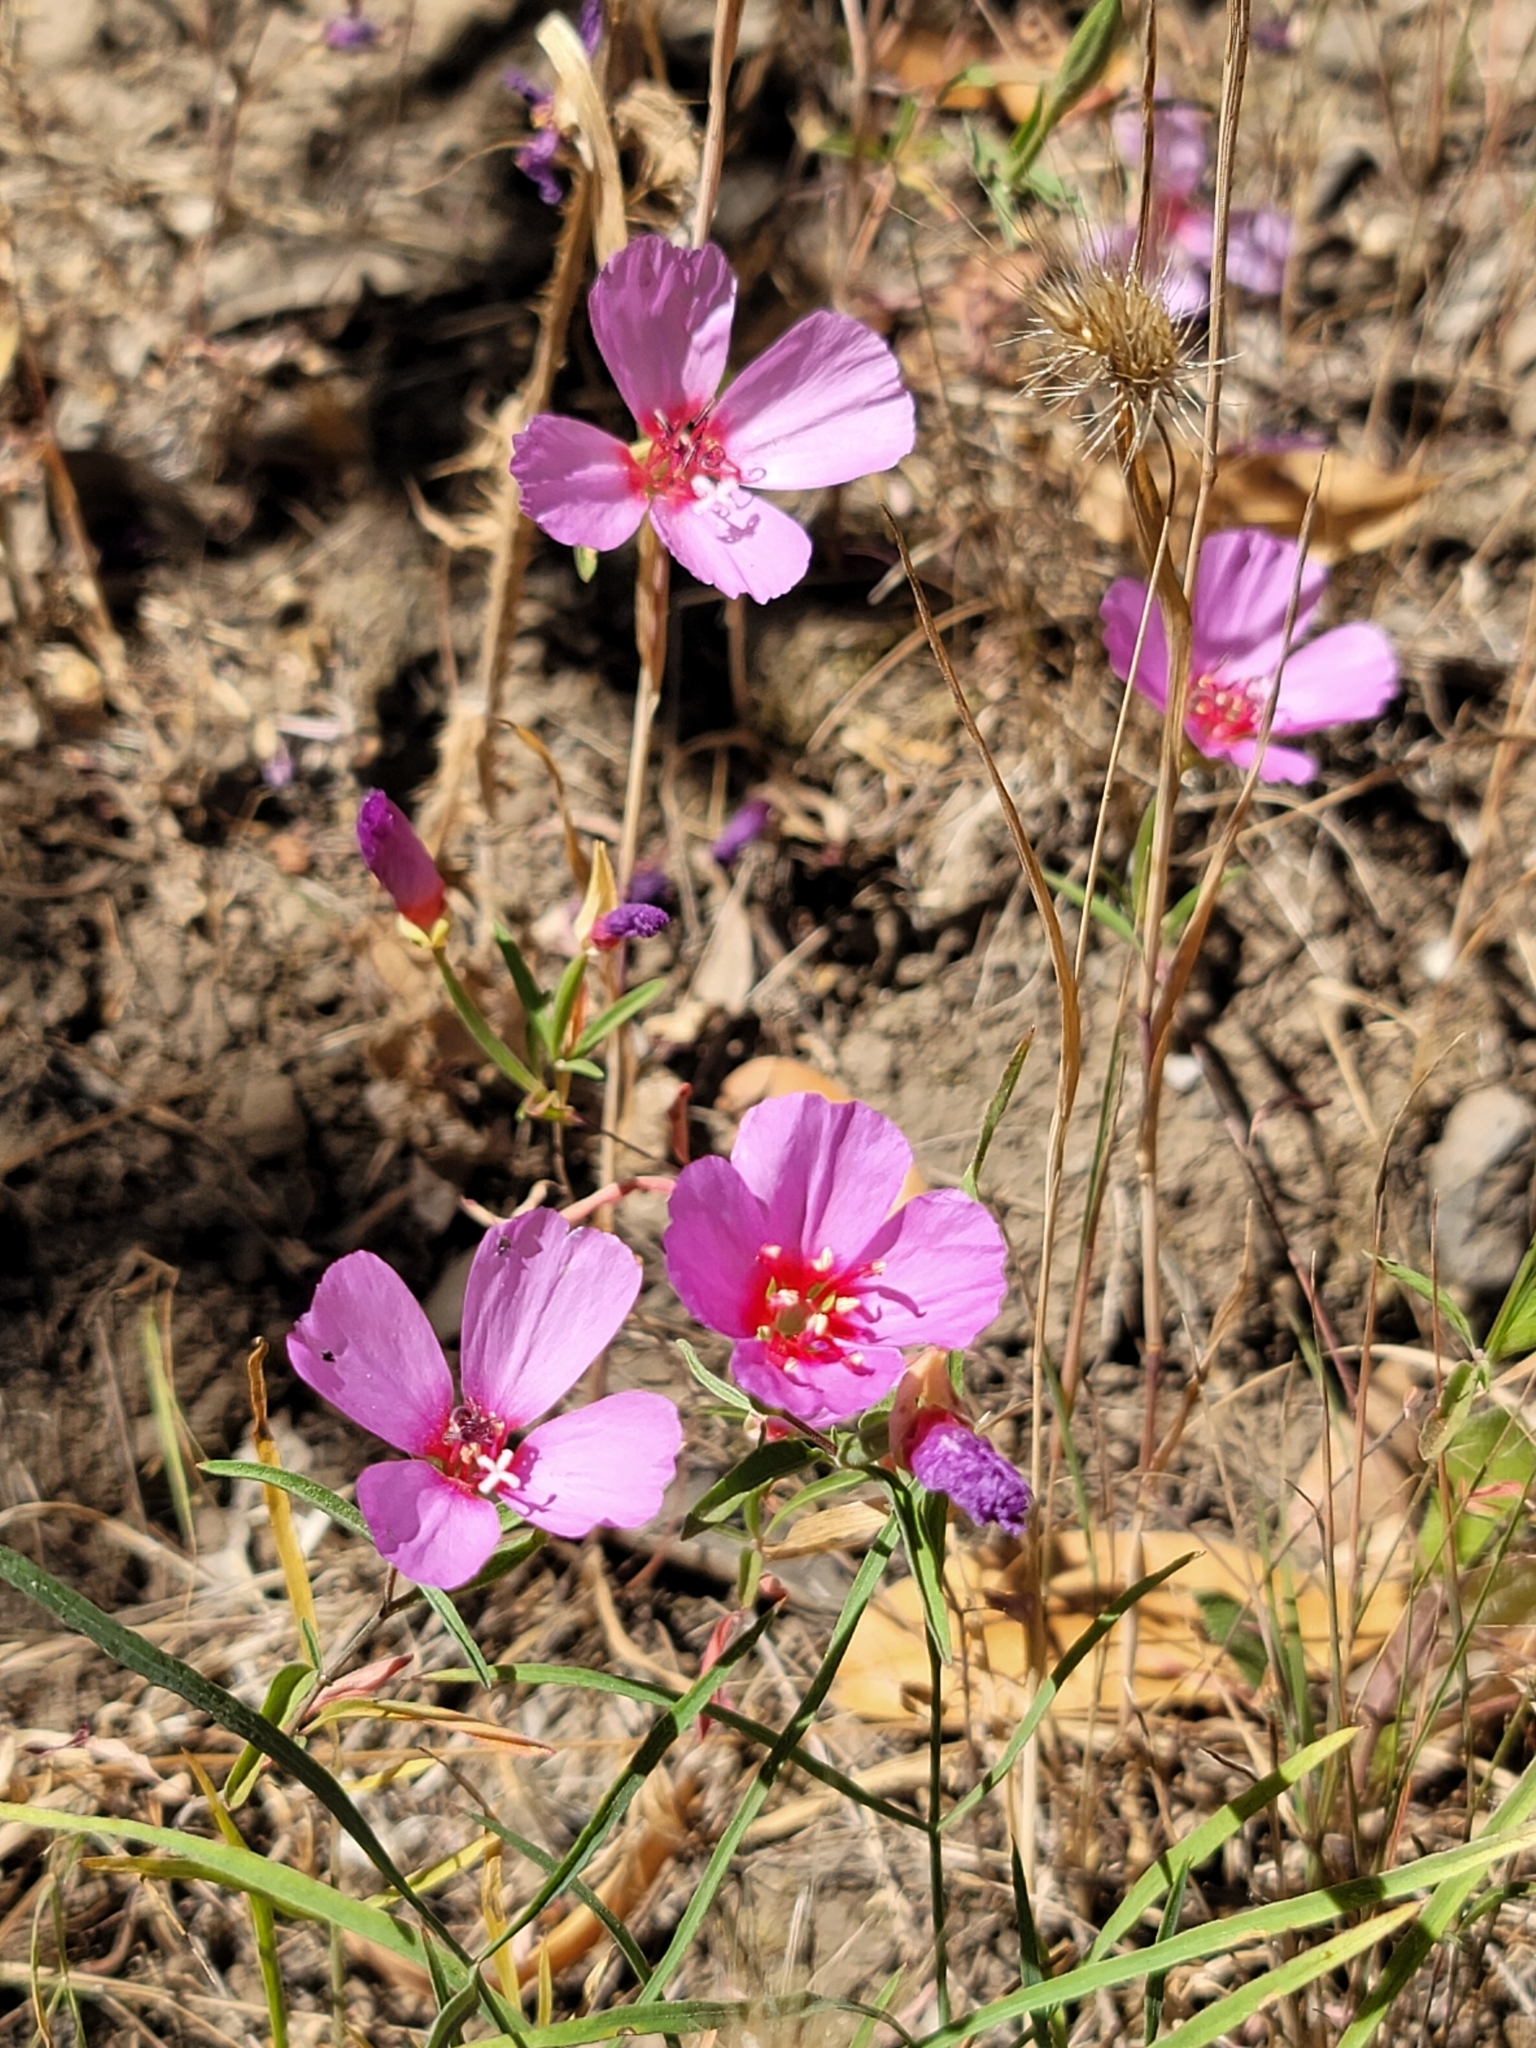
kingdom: Plantae
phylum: Tracheophyta
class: Magnoliopsida
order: Myrtales
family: Onagraceae
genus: Clarkia
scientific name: Clarkia rubicunda
